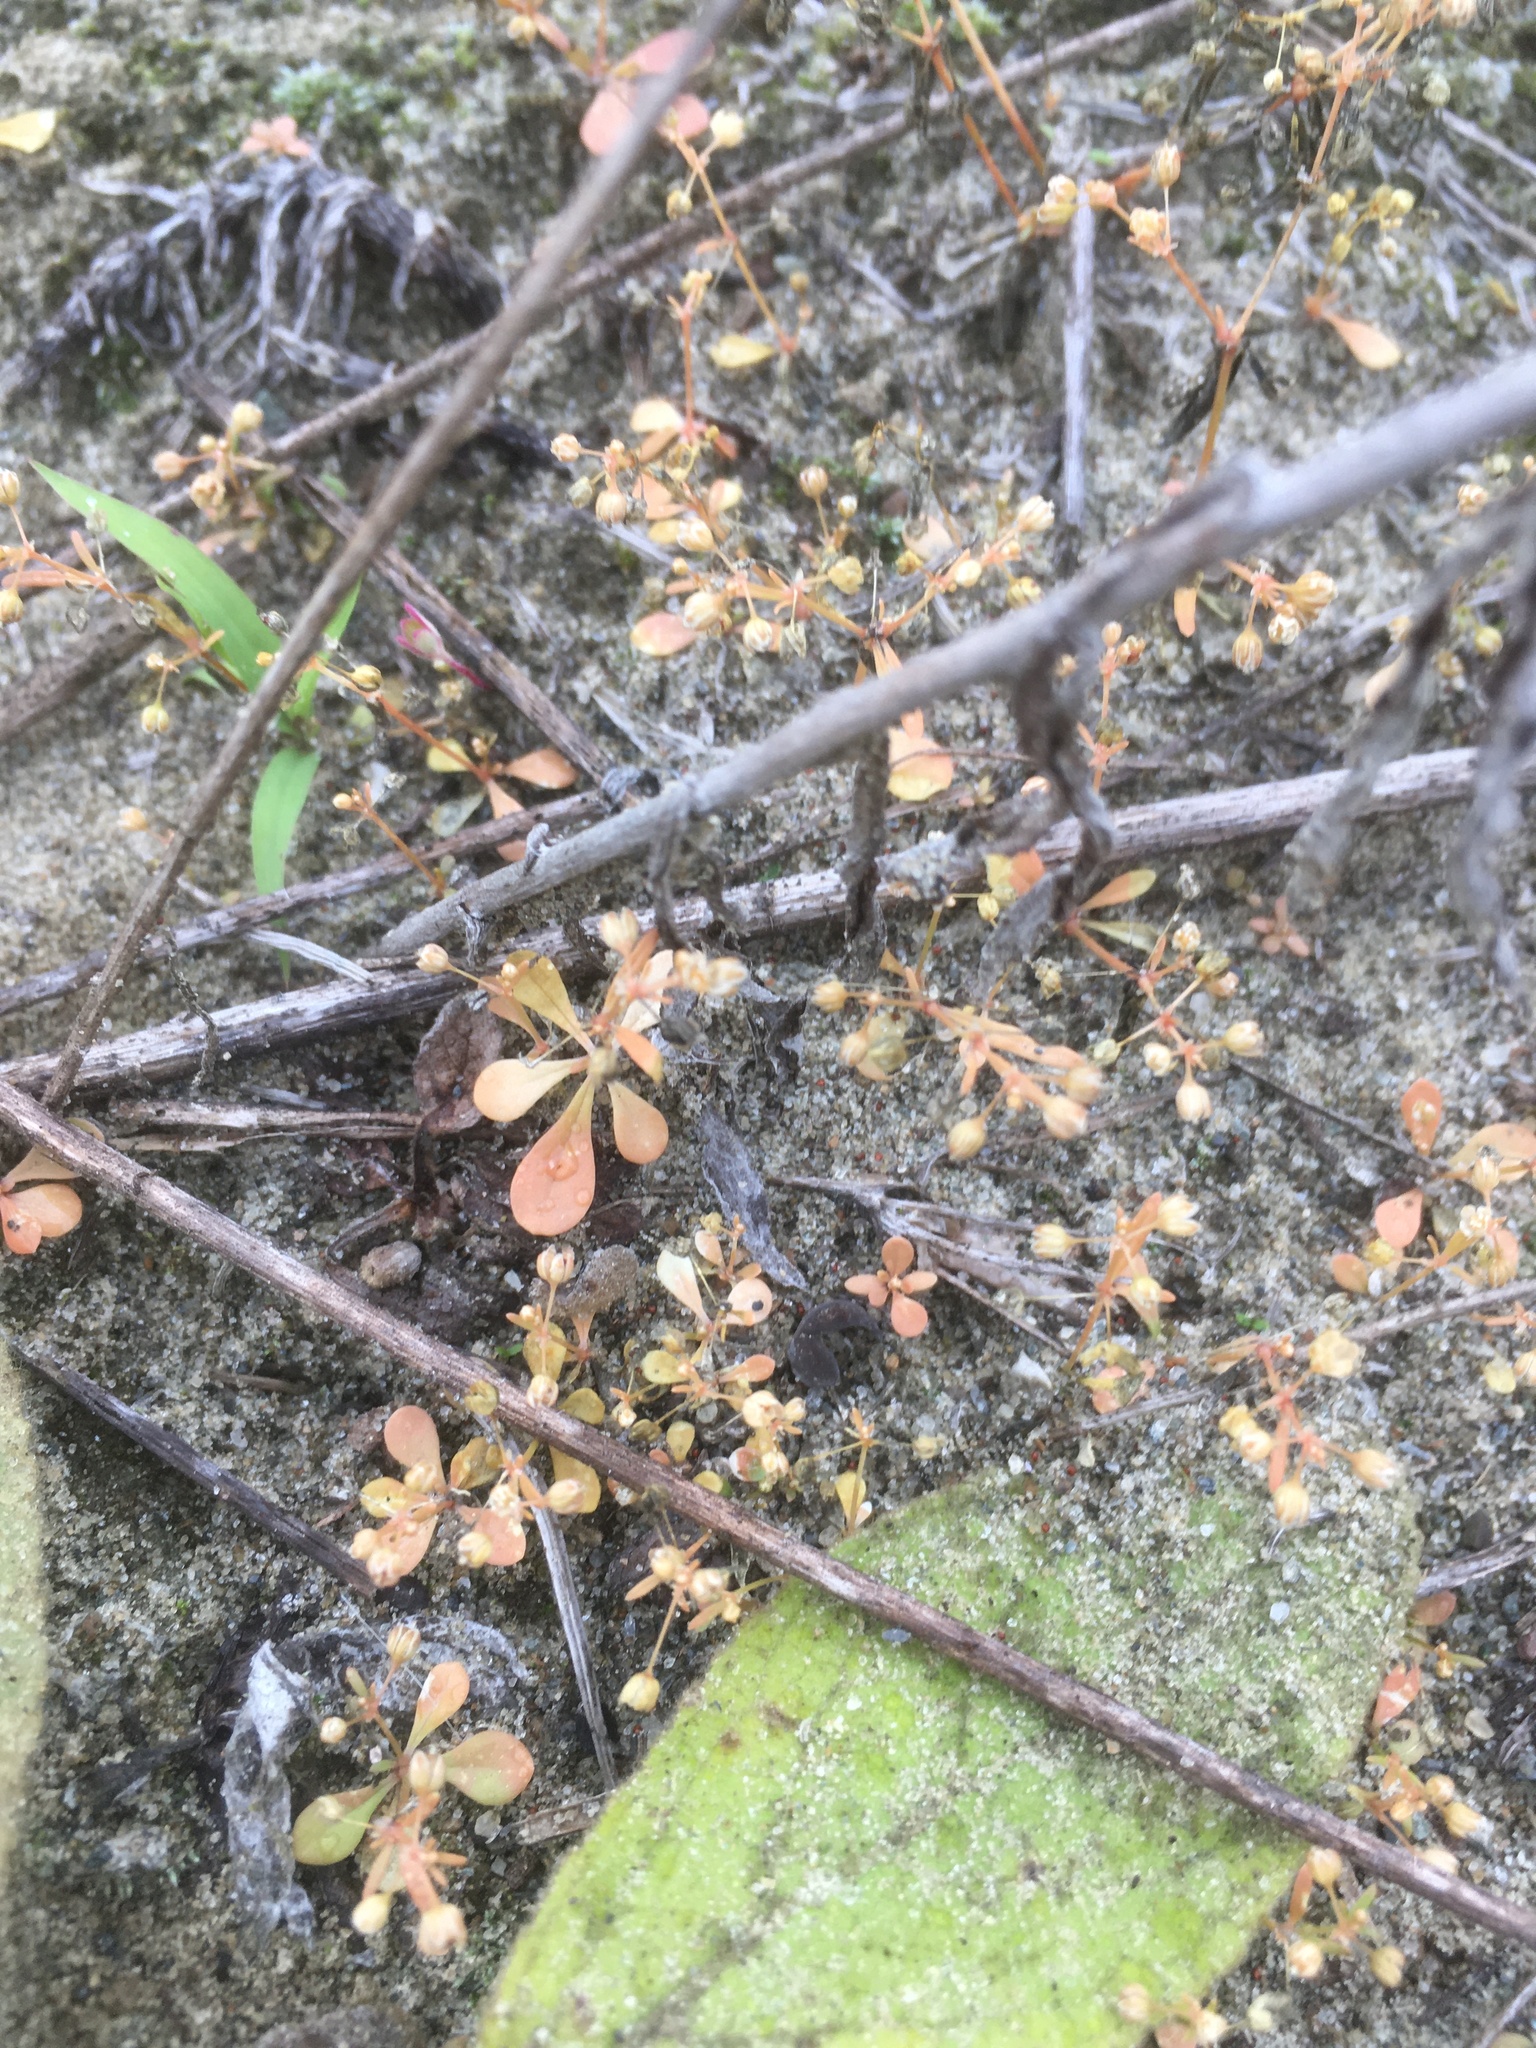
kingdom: Plantae
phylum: Tracheophyta
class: Magnoliopsida
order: Caryophyllales
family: Molluginaceae
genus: Mollugo
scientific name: Mollugo verticillata
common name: Green carpetweed
